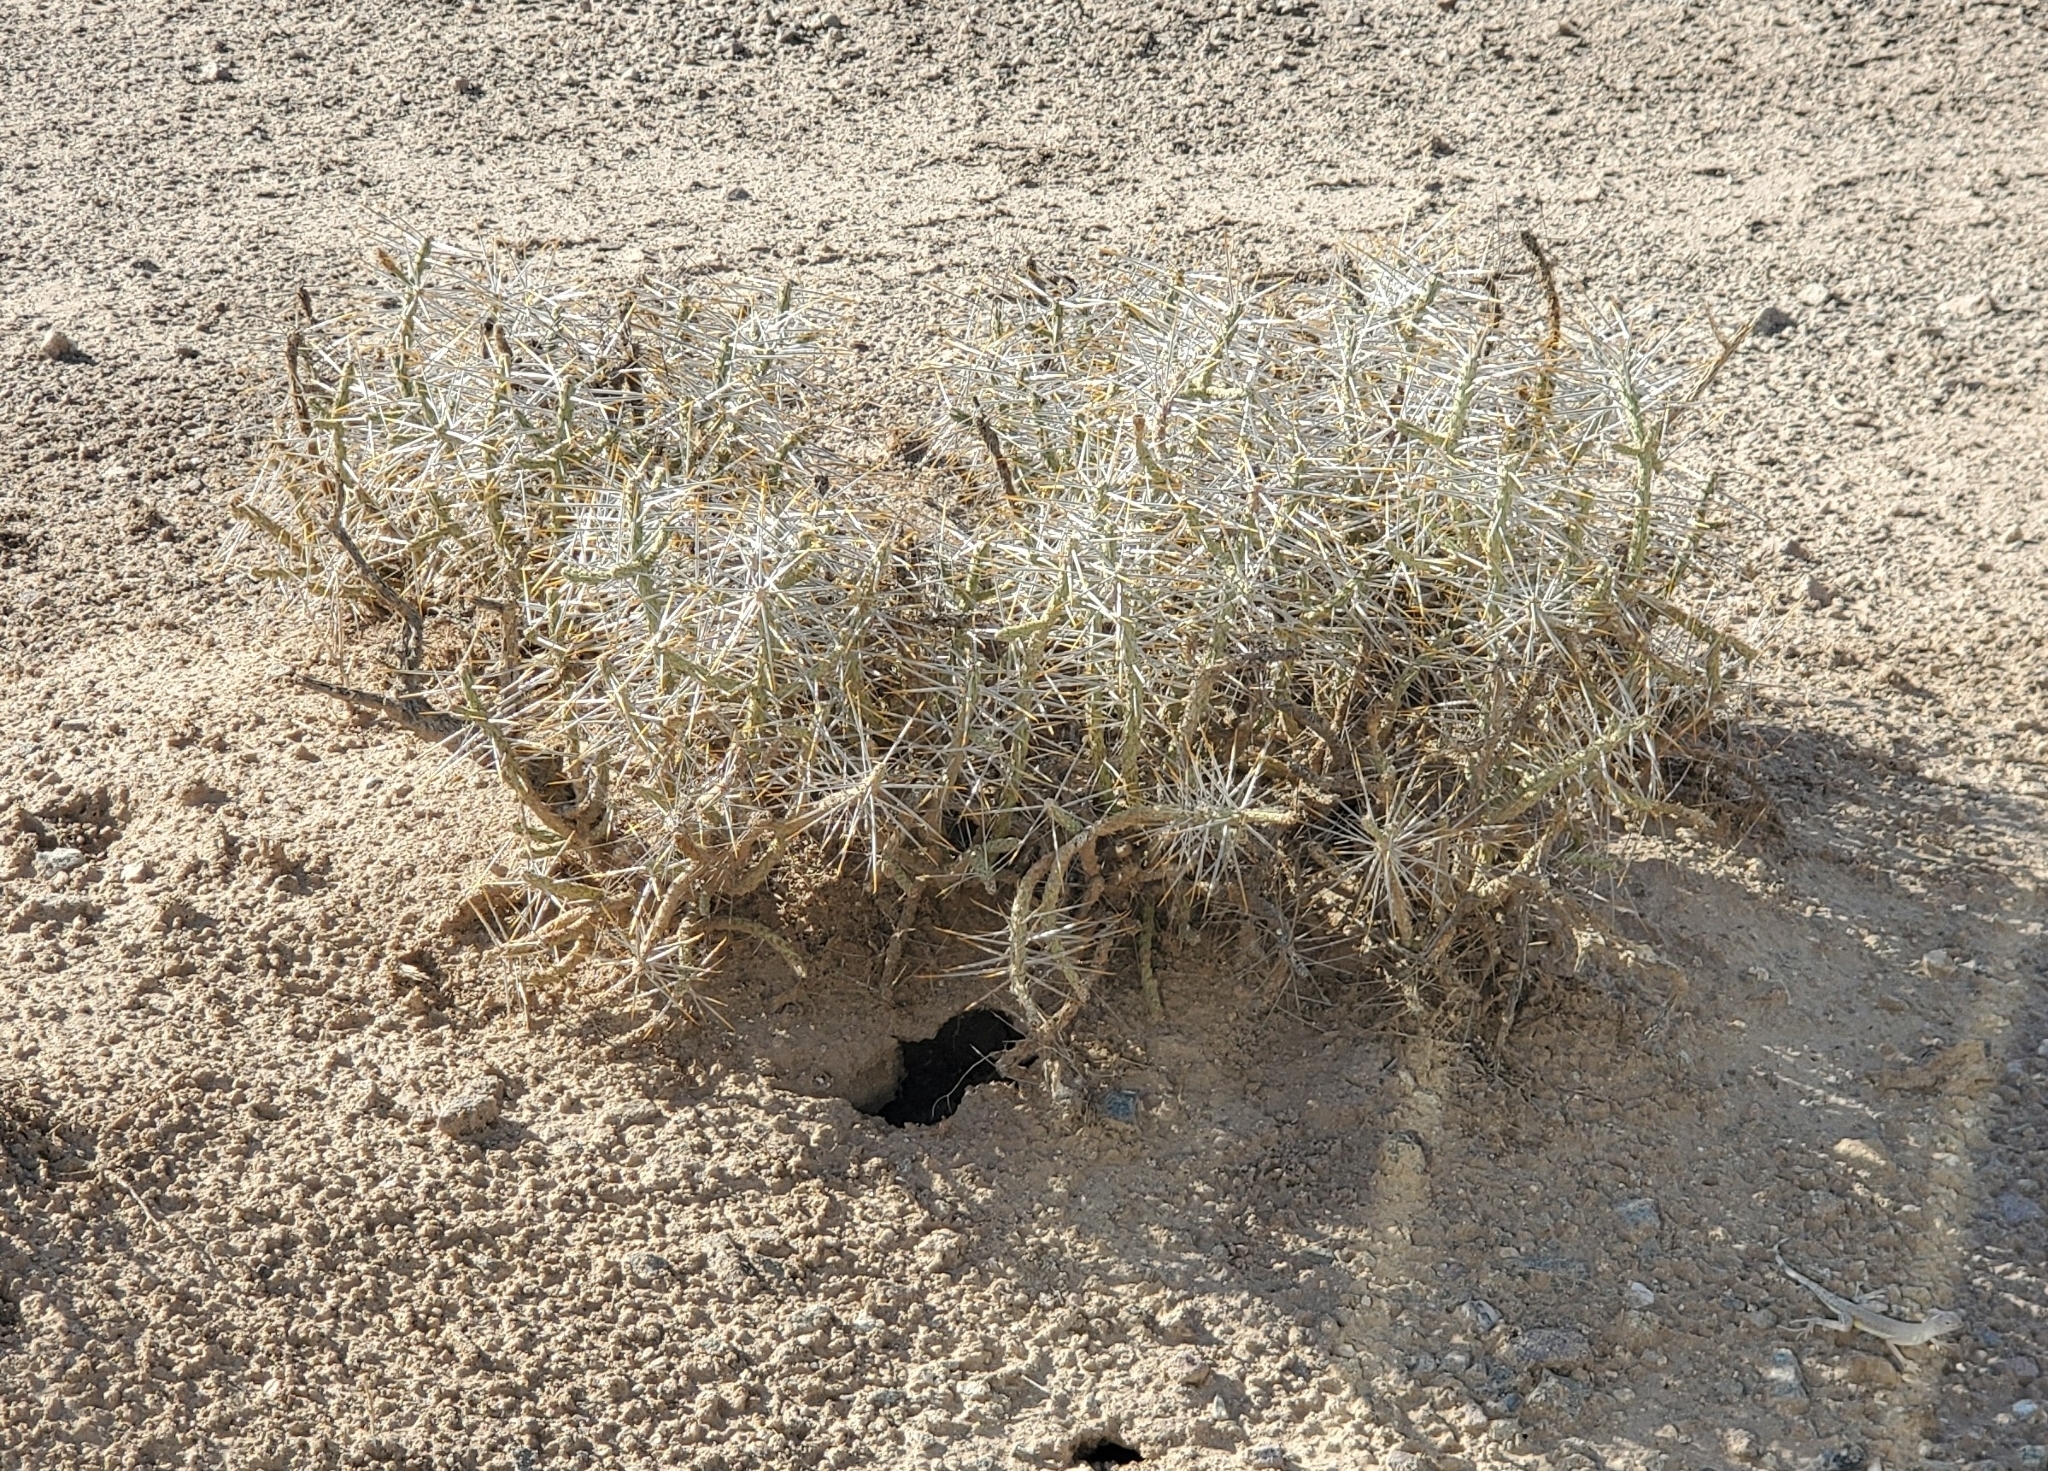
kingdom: Plantae
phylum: Tracheophyta
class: Magnoliopsida
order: Caryophyllales
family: Cactaceae
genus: Cylindropuntia
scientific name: Cylindropuntia ramosissima
